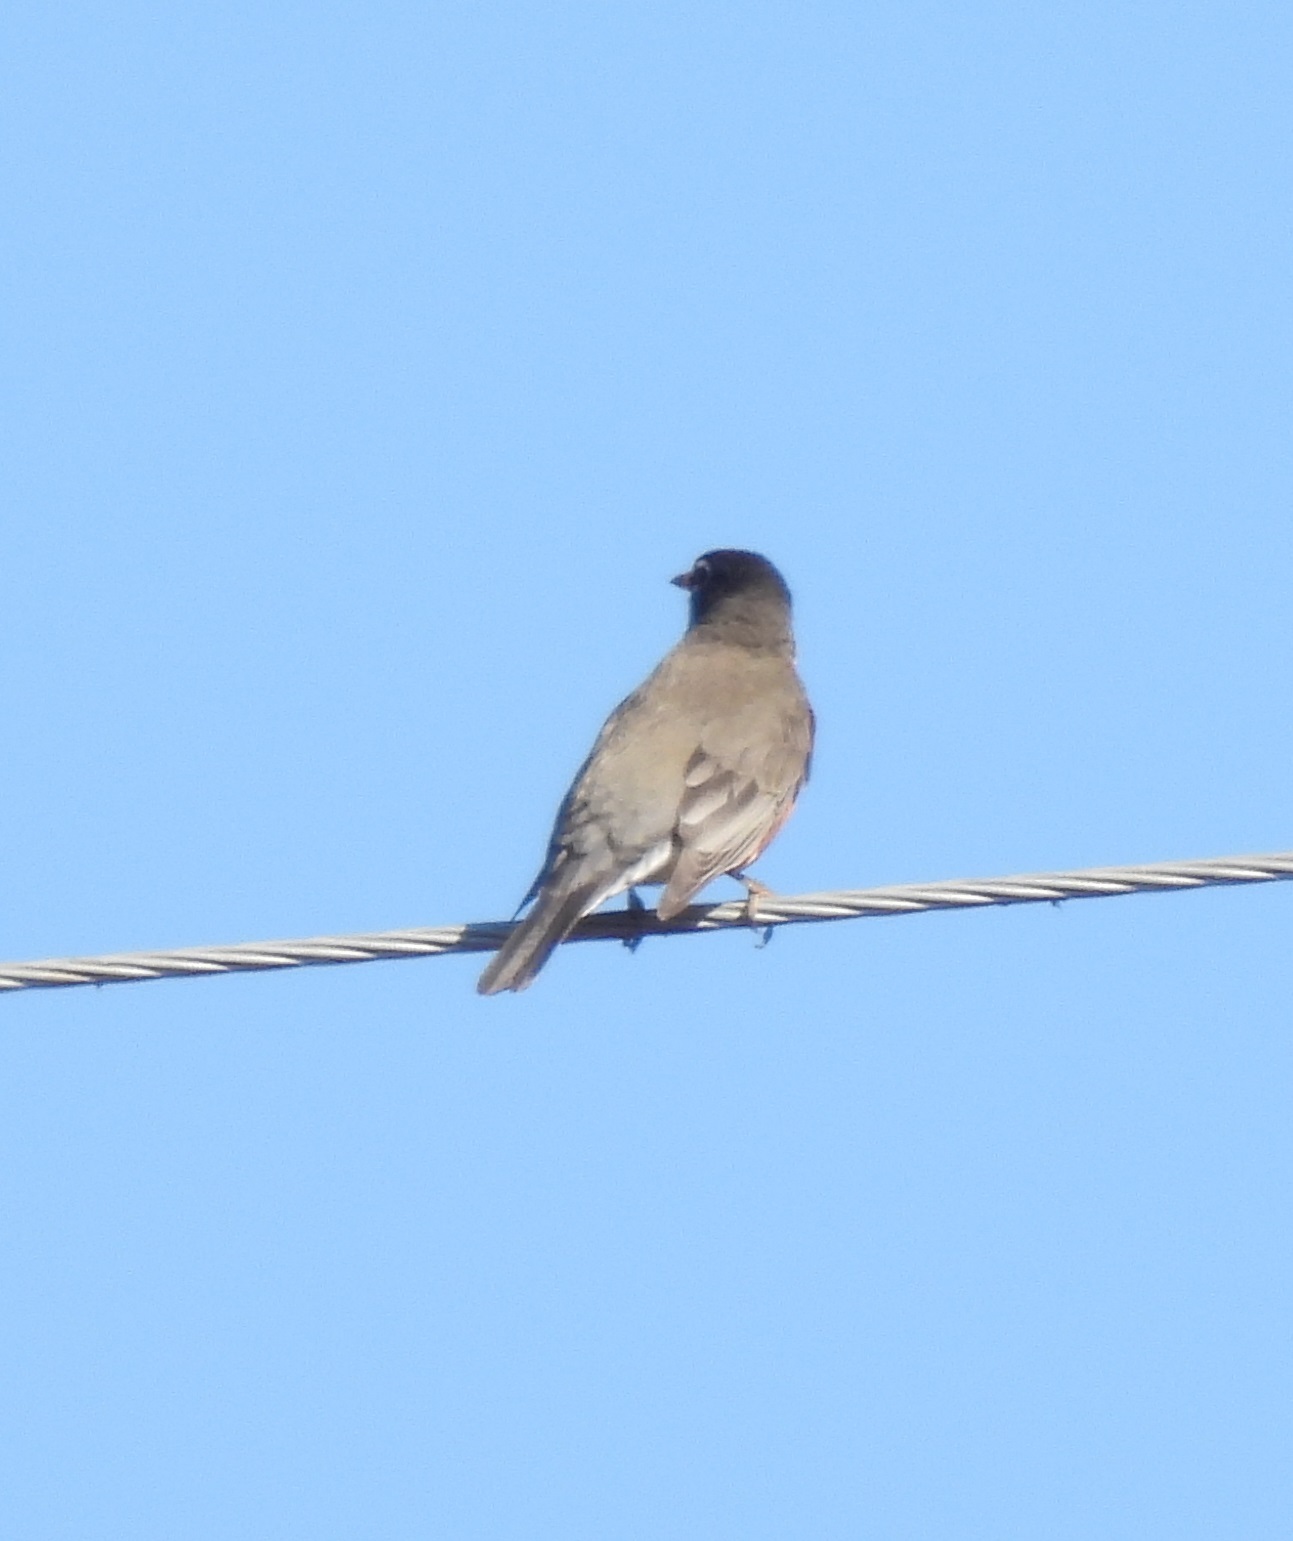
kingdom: Animalia
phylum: Chordata
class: Aves
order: Passeriformes
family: Turdidae
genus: Turdus
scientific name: Turdus migratorius
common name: American robin
